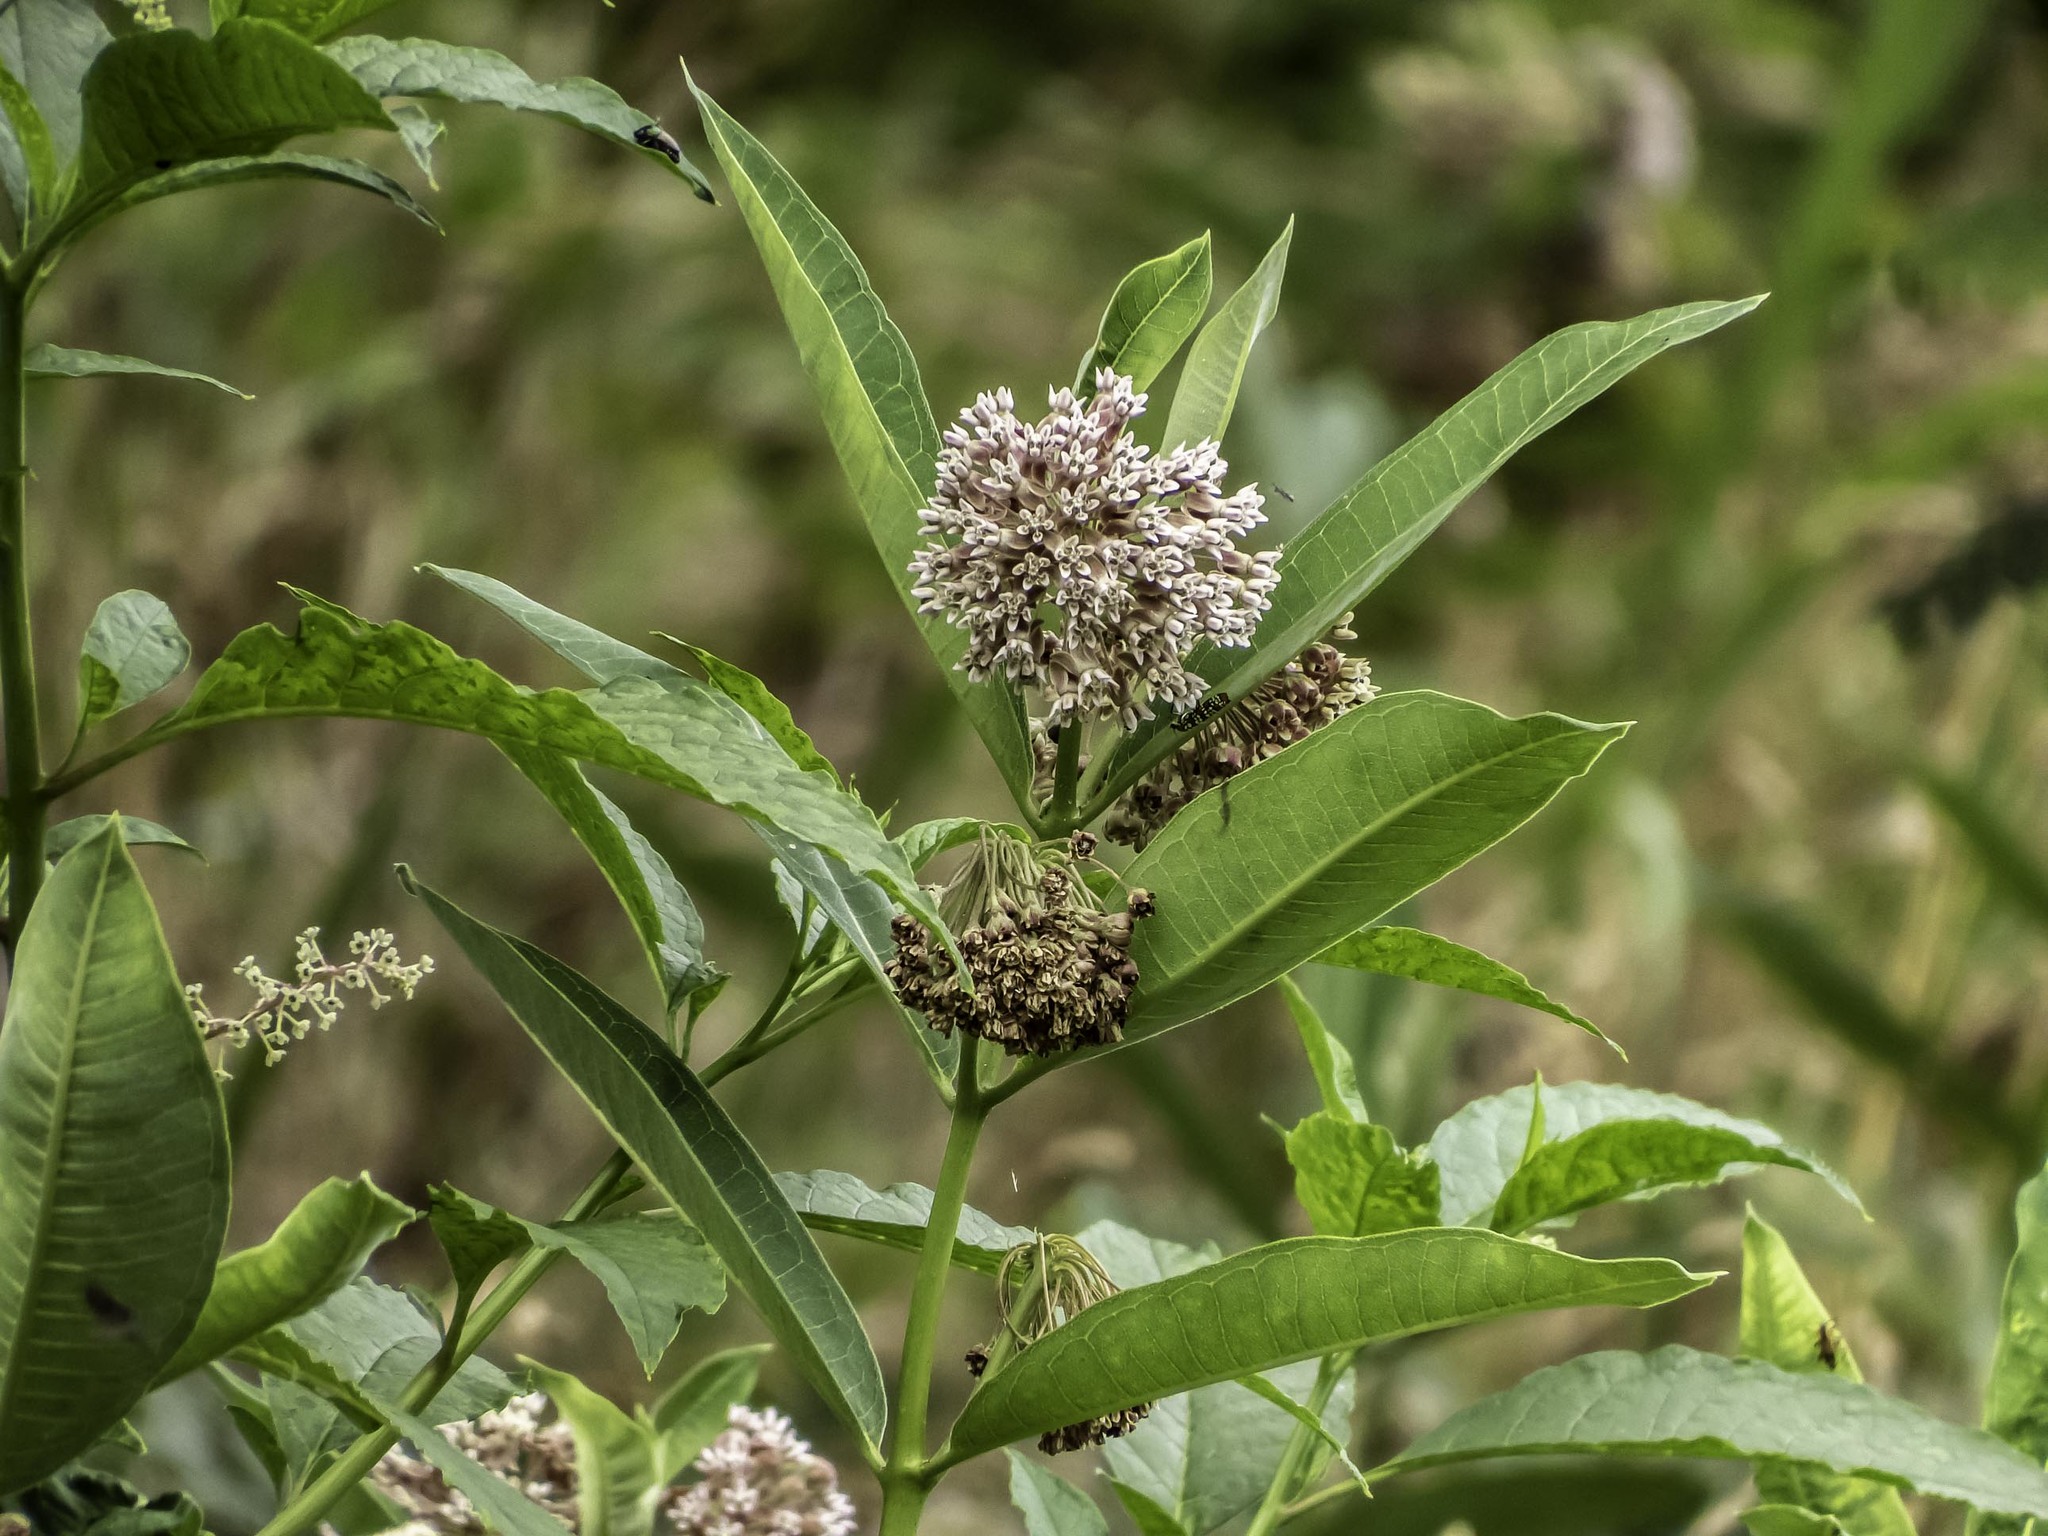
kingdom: Plantae
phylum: Tracheophyta
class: Magnoliopsida
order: Gentianales
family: Apocynaceae
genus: Asclepias
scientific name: Asclepias syriaca
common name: Common milkweed
